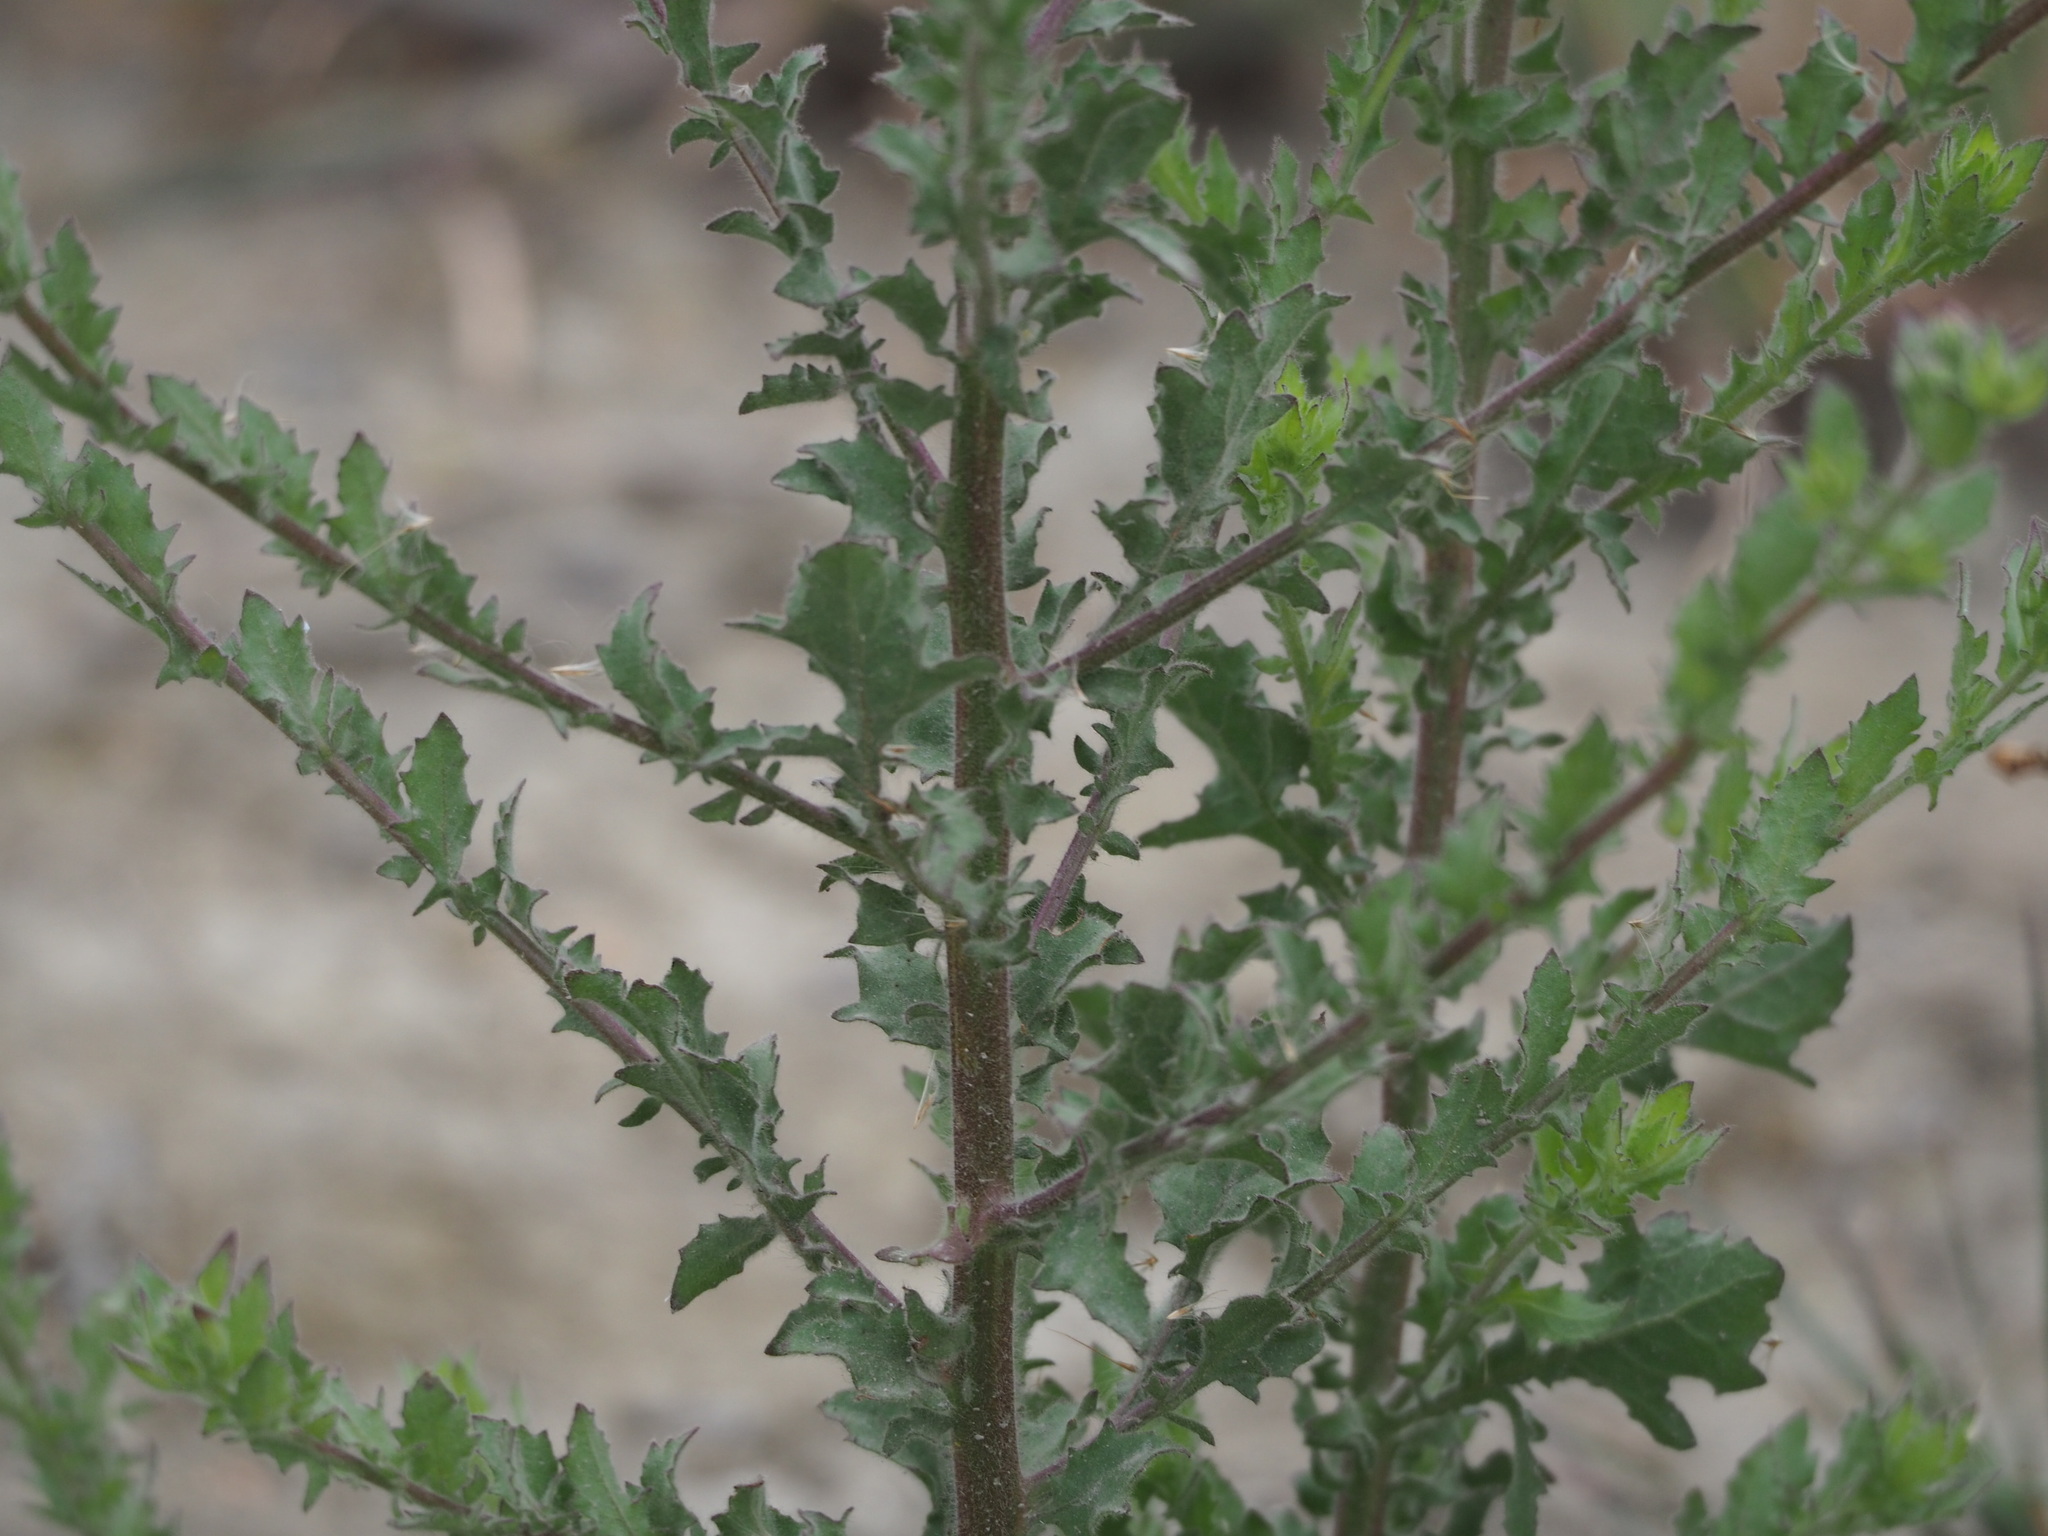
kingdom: Plantae
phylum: Tracheophyta
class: Magnoliopsida
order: Asterales
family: Asteraceae
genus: Pseudoconyza
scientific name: Pseudoconyza viscosa
